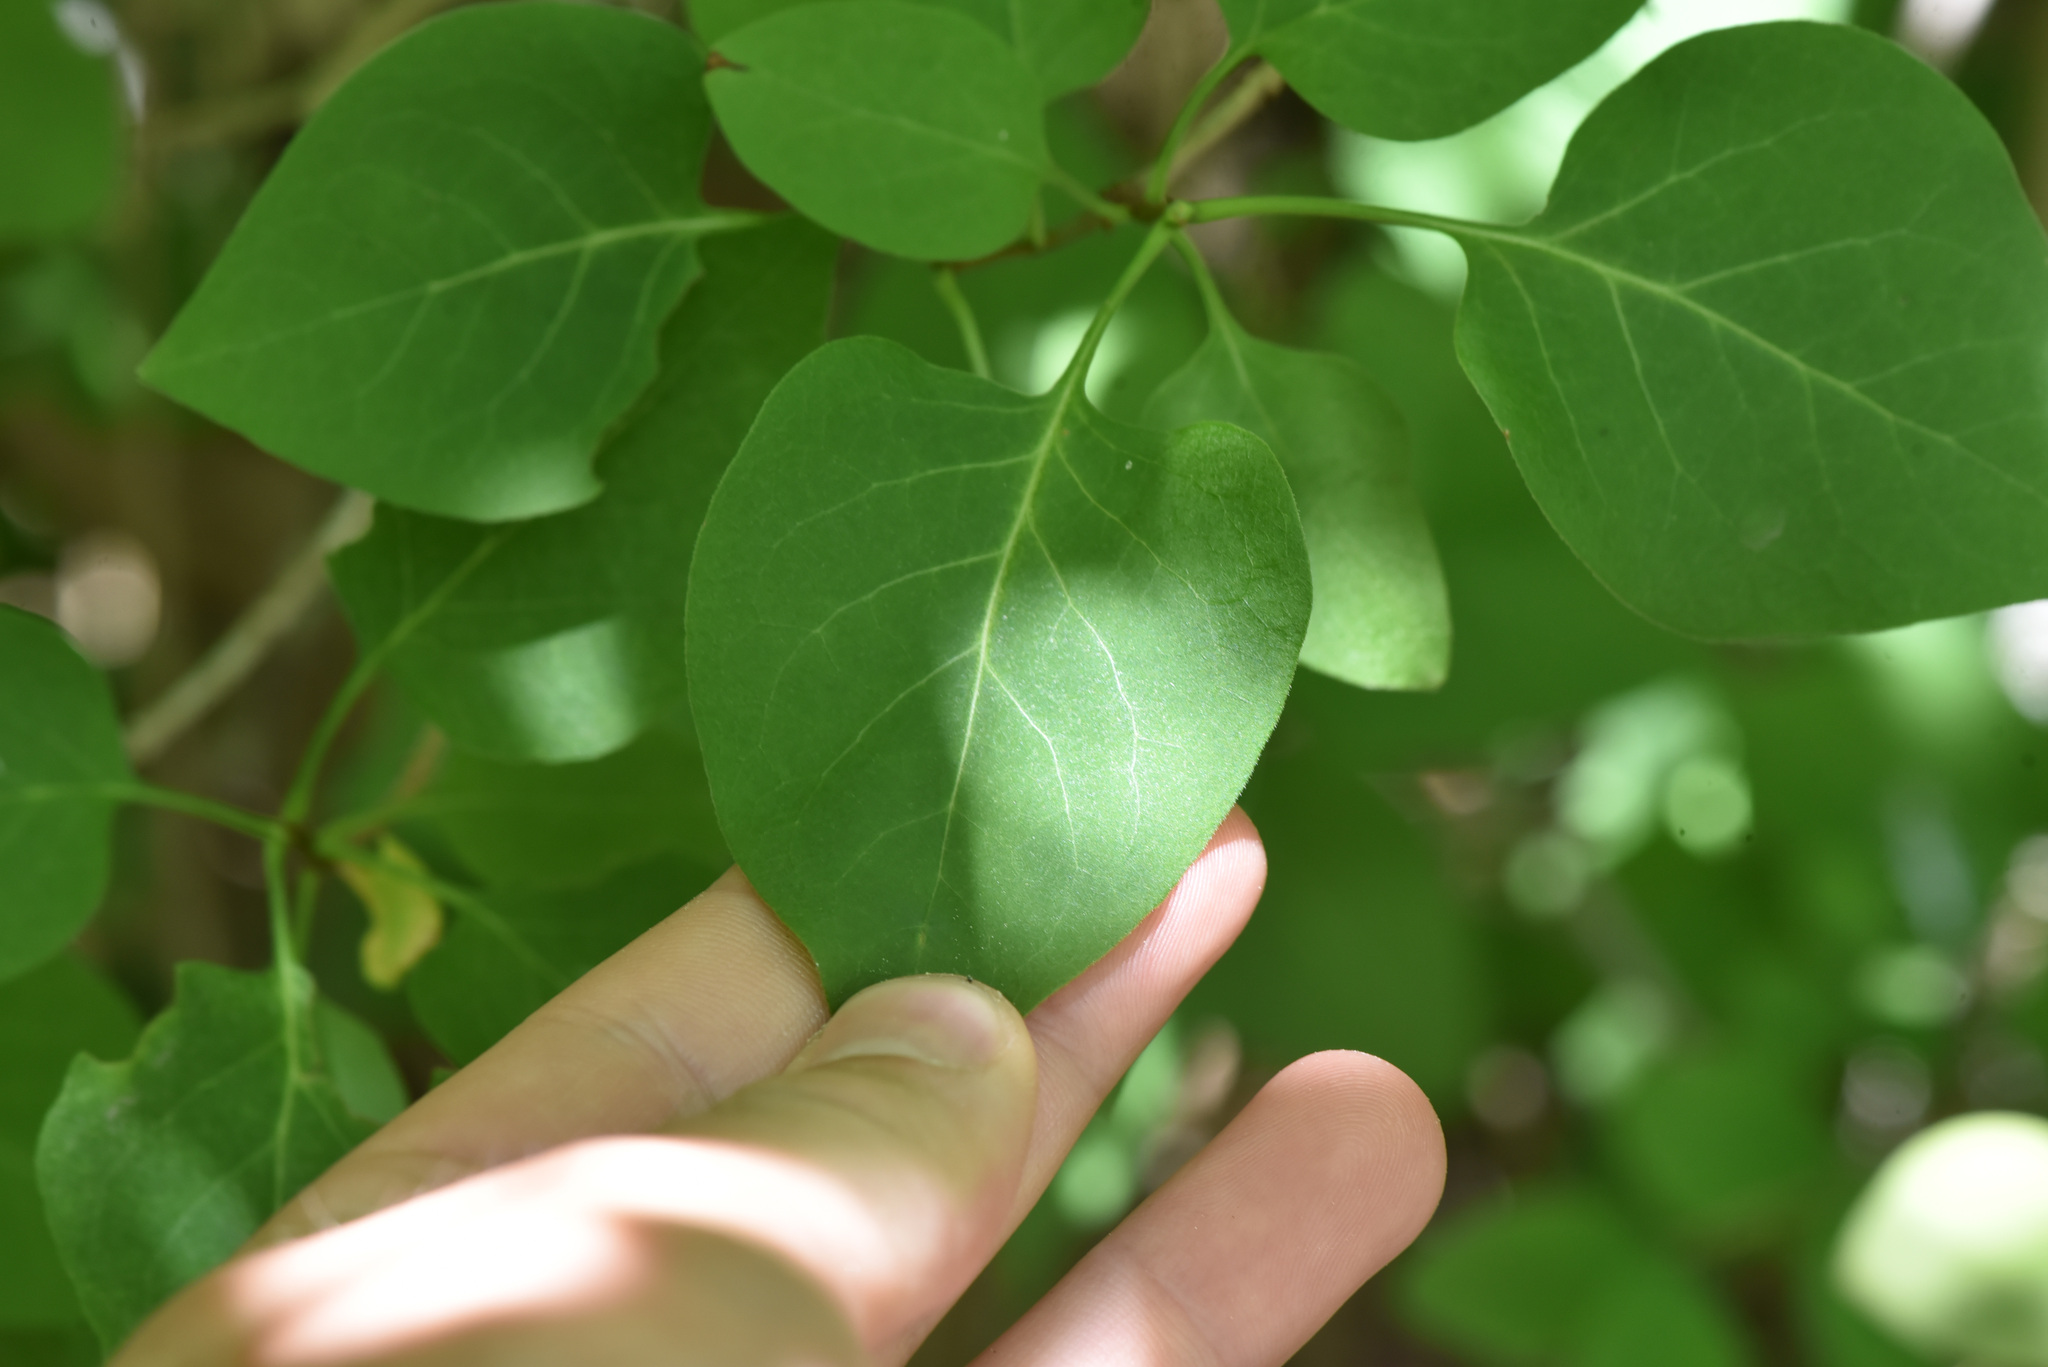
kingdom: Plantae
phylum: Tracheophyta
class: Magnoliopsida
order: Lamiales
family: Oleaceae
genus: Syringa
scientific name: Syringa vulgaris
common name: Common lilac
